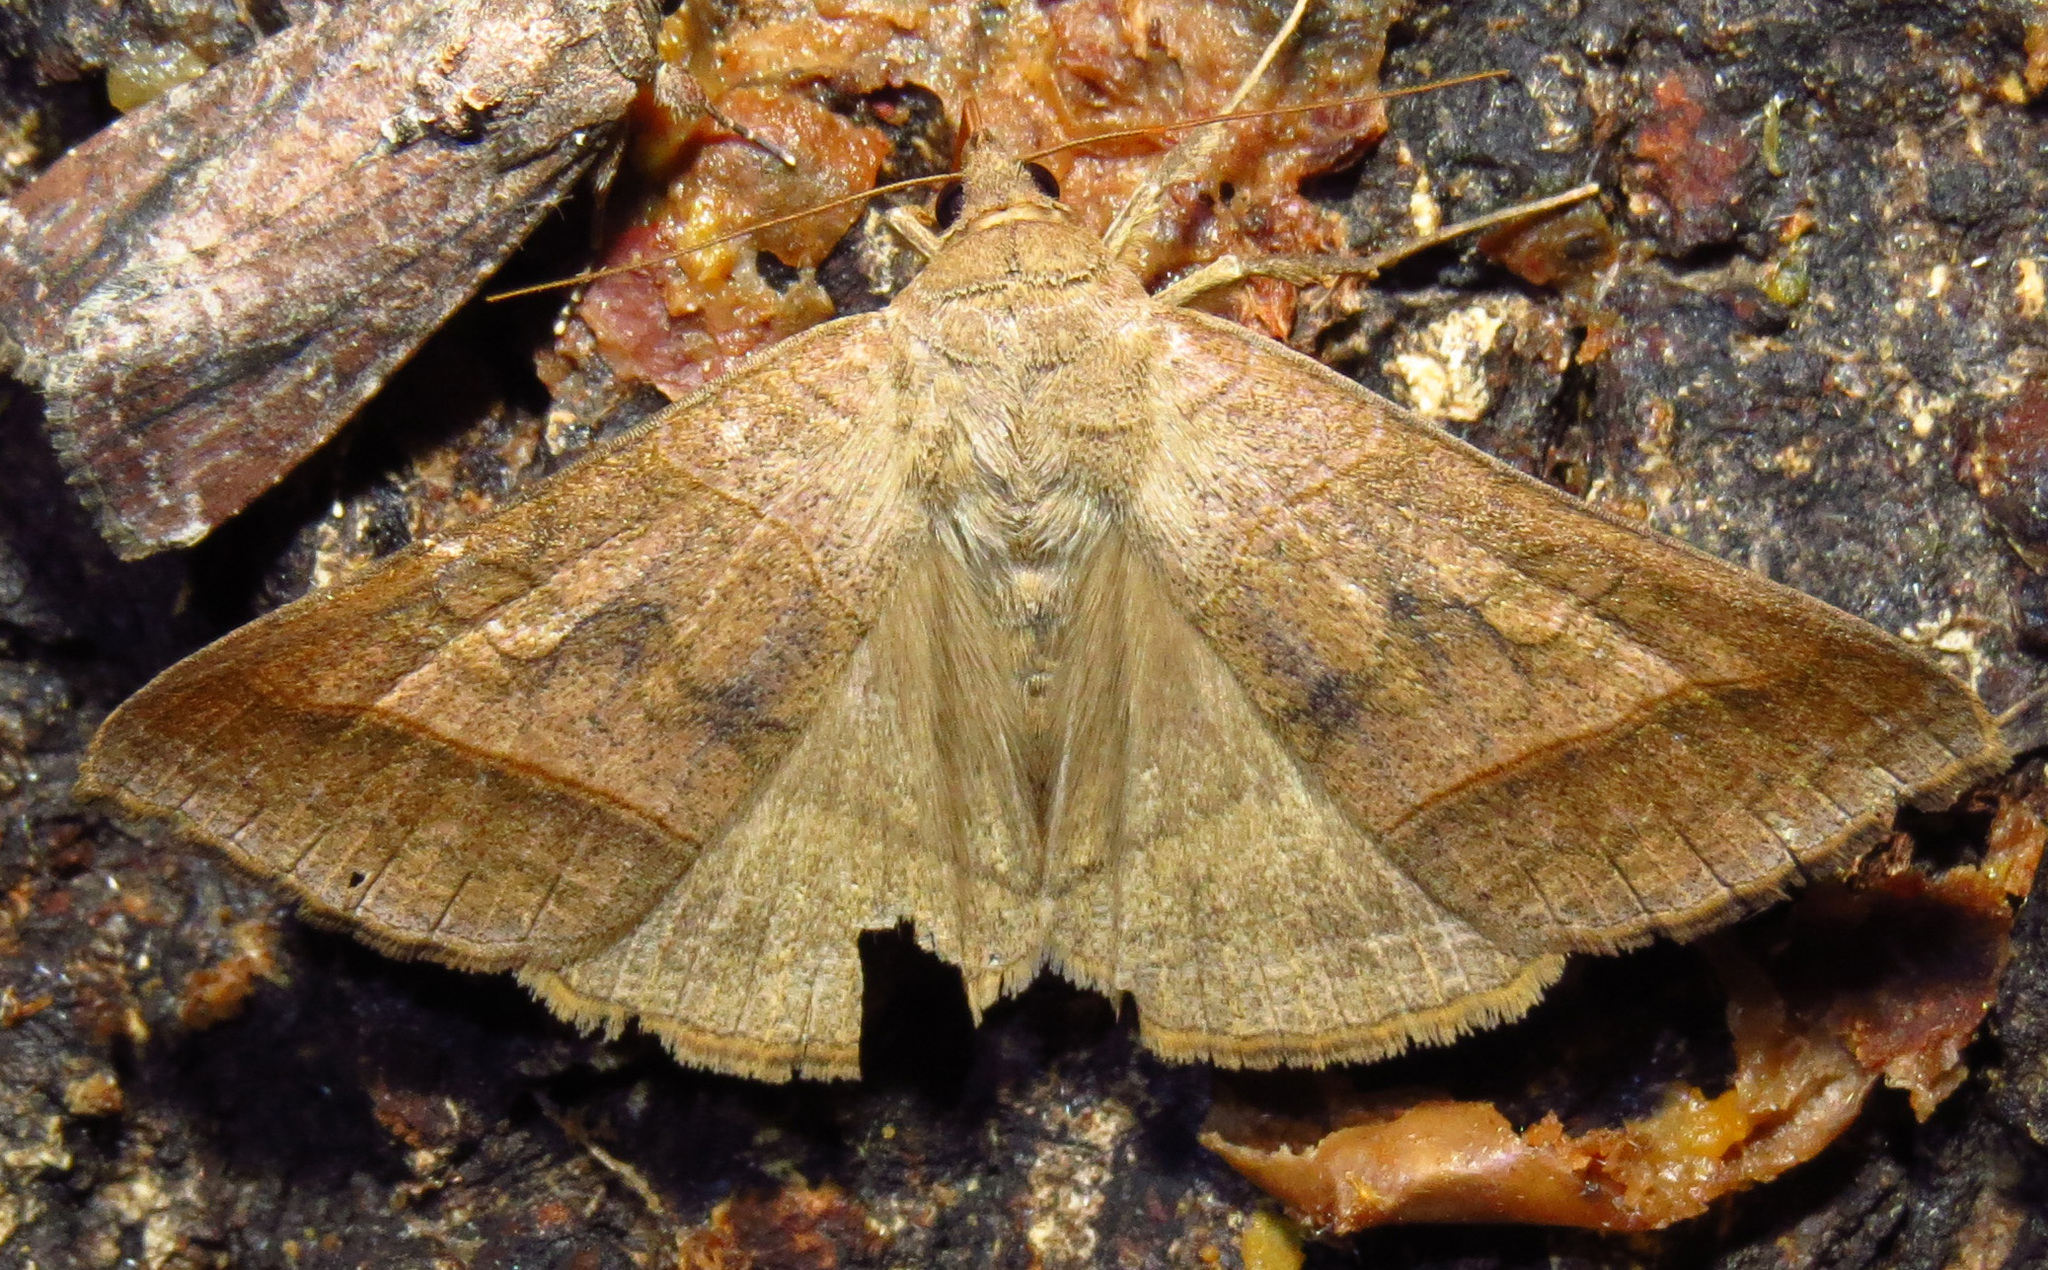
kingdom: Animalia
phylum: Arthropoda
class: Insecta
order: Lepidoptera
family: Erebidae
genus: Mocis
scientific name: Mocis texana
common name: Texas mocis moth
